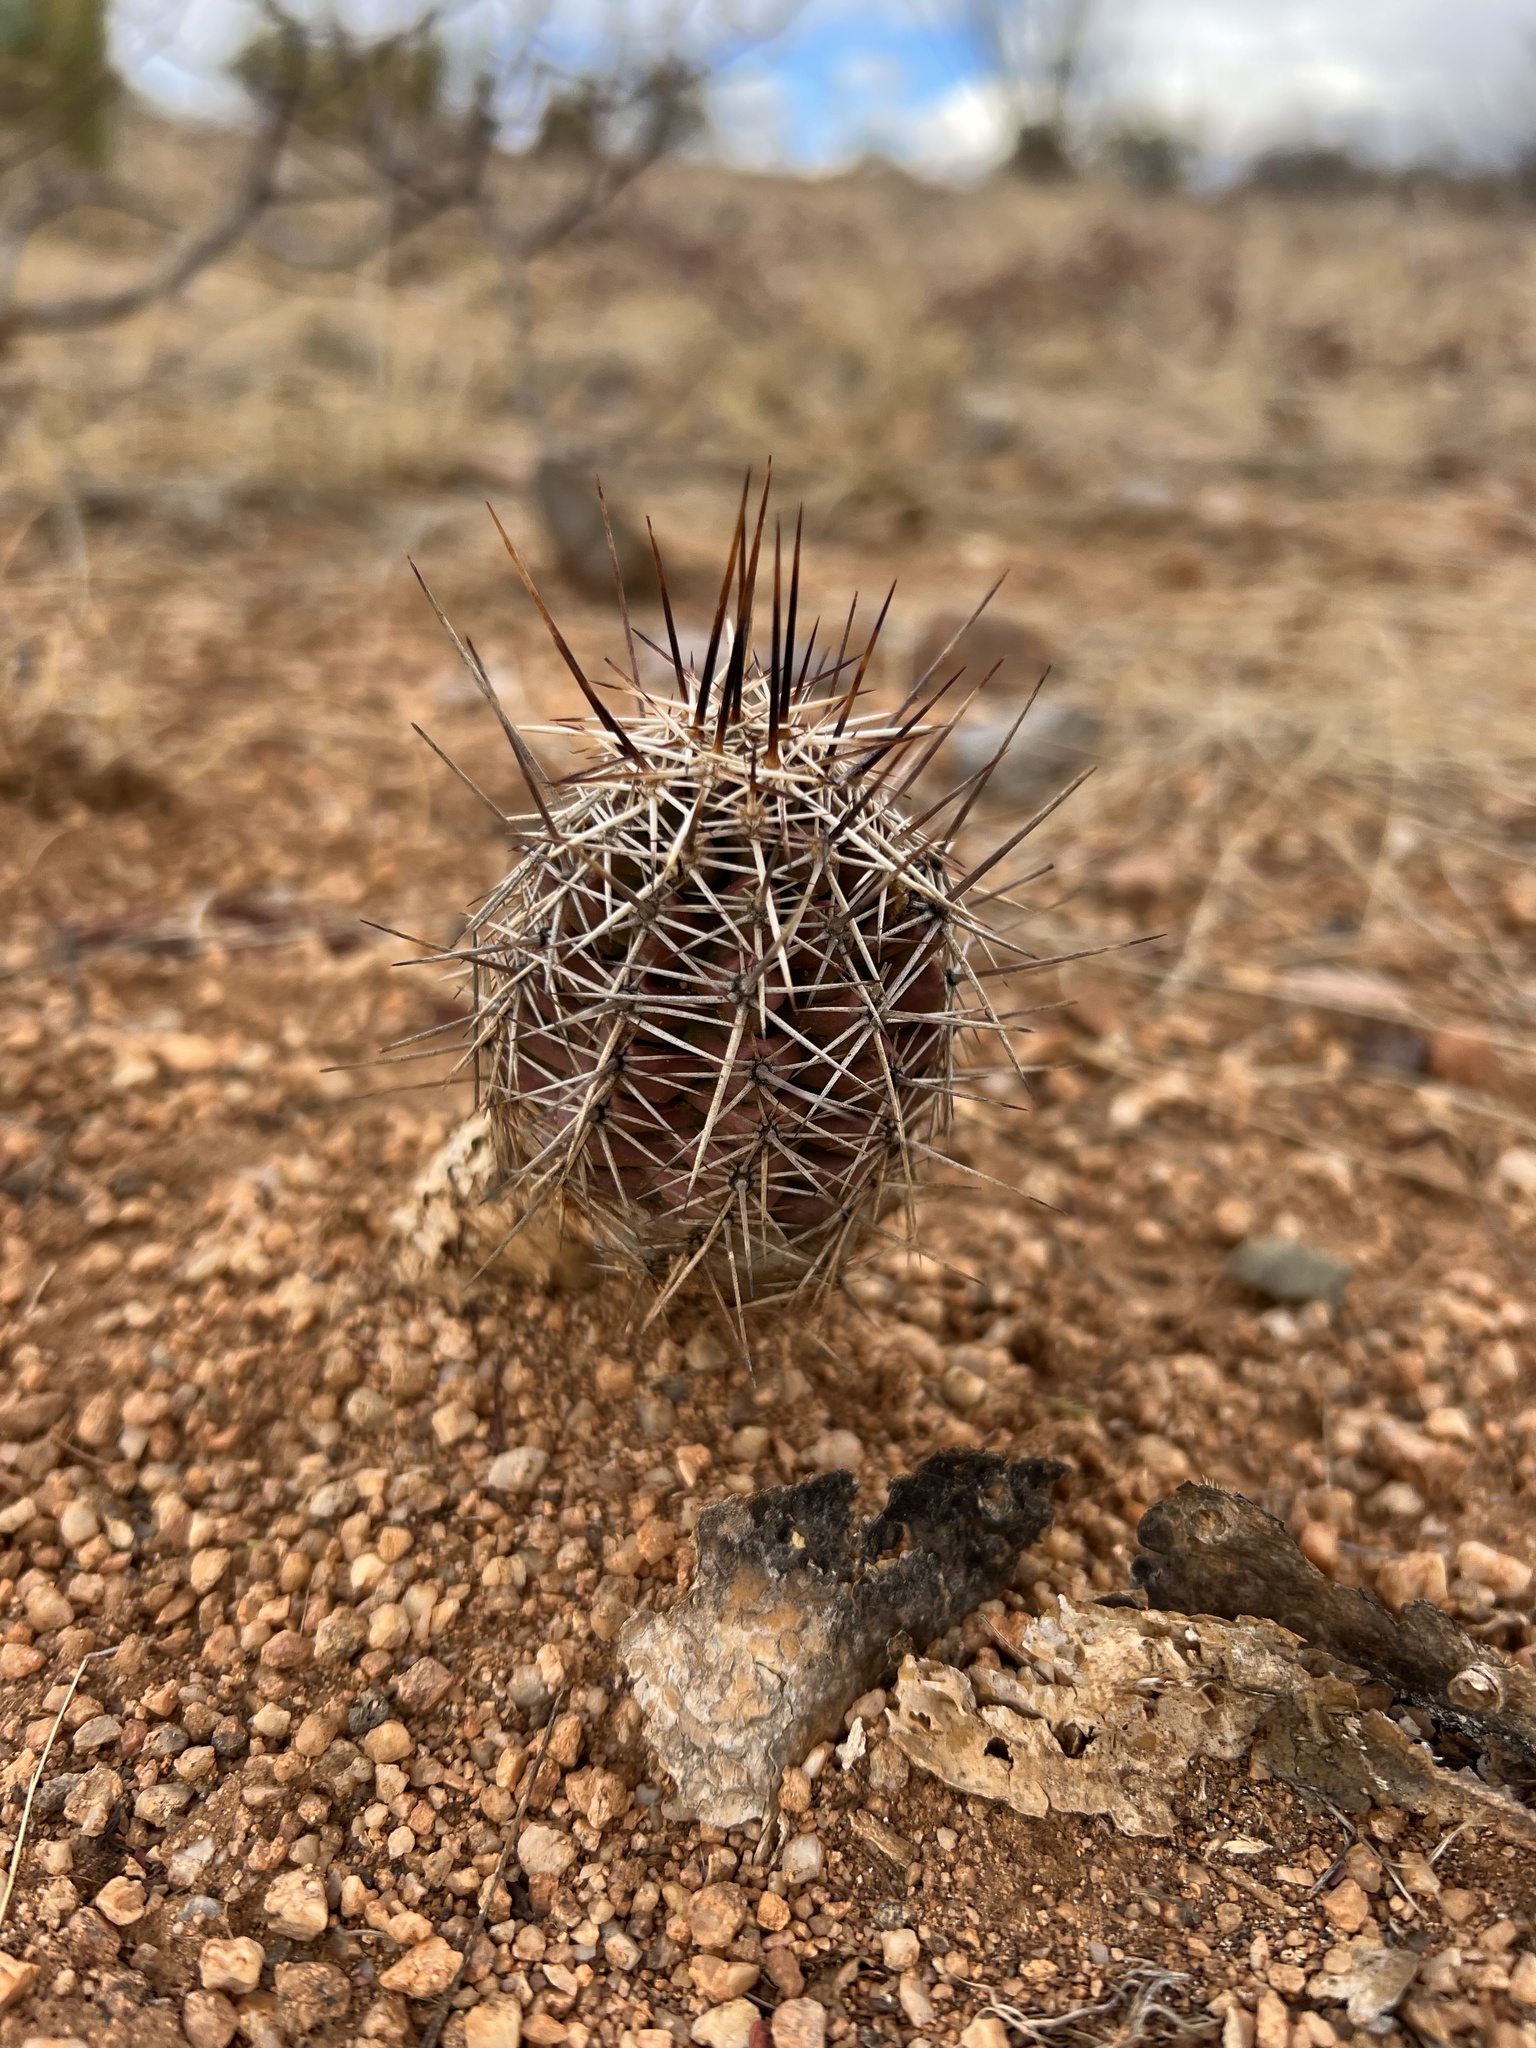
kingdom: Plantae
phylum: Tracheophyta
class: Magnoliopsida
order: Caryophyllales
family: Cactaceae
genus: Echinocereus
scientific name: Echinocereus fasciculatus
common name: Bundle hedgehog
